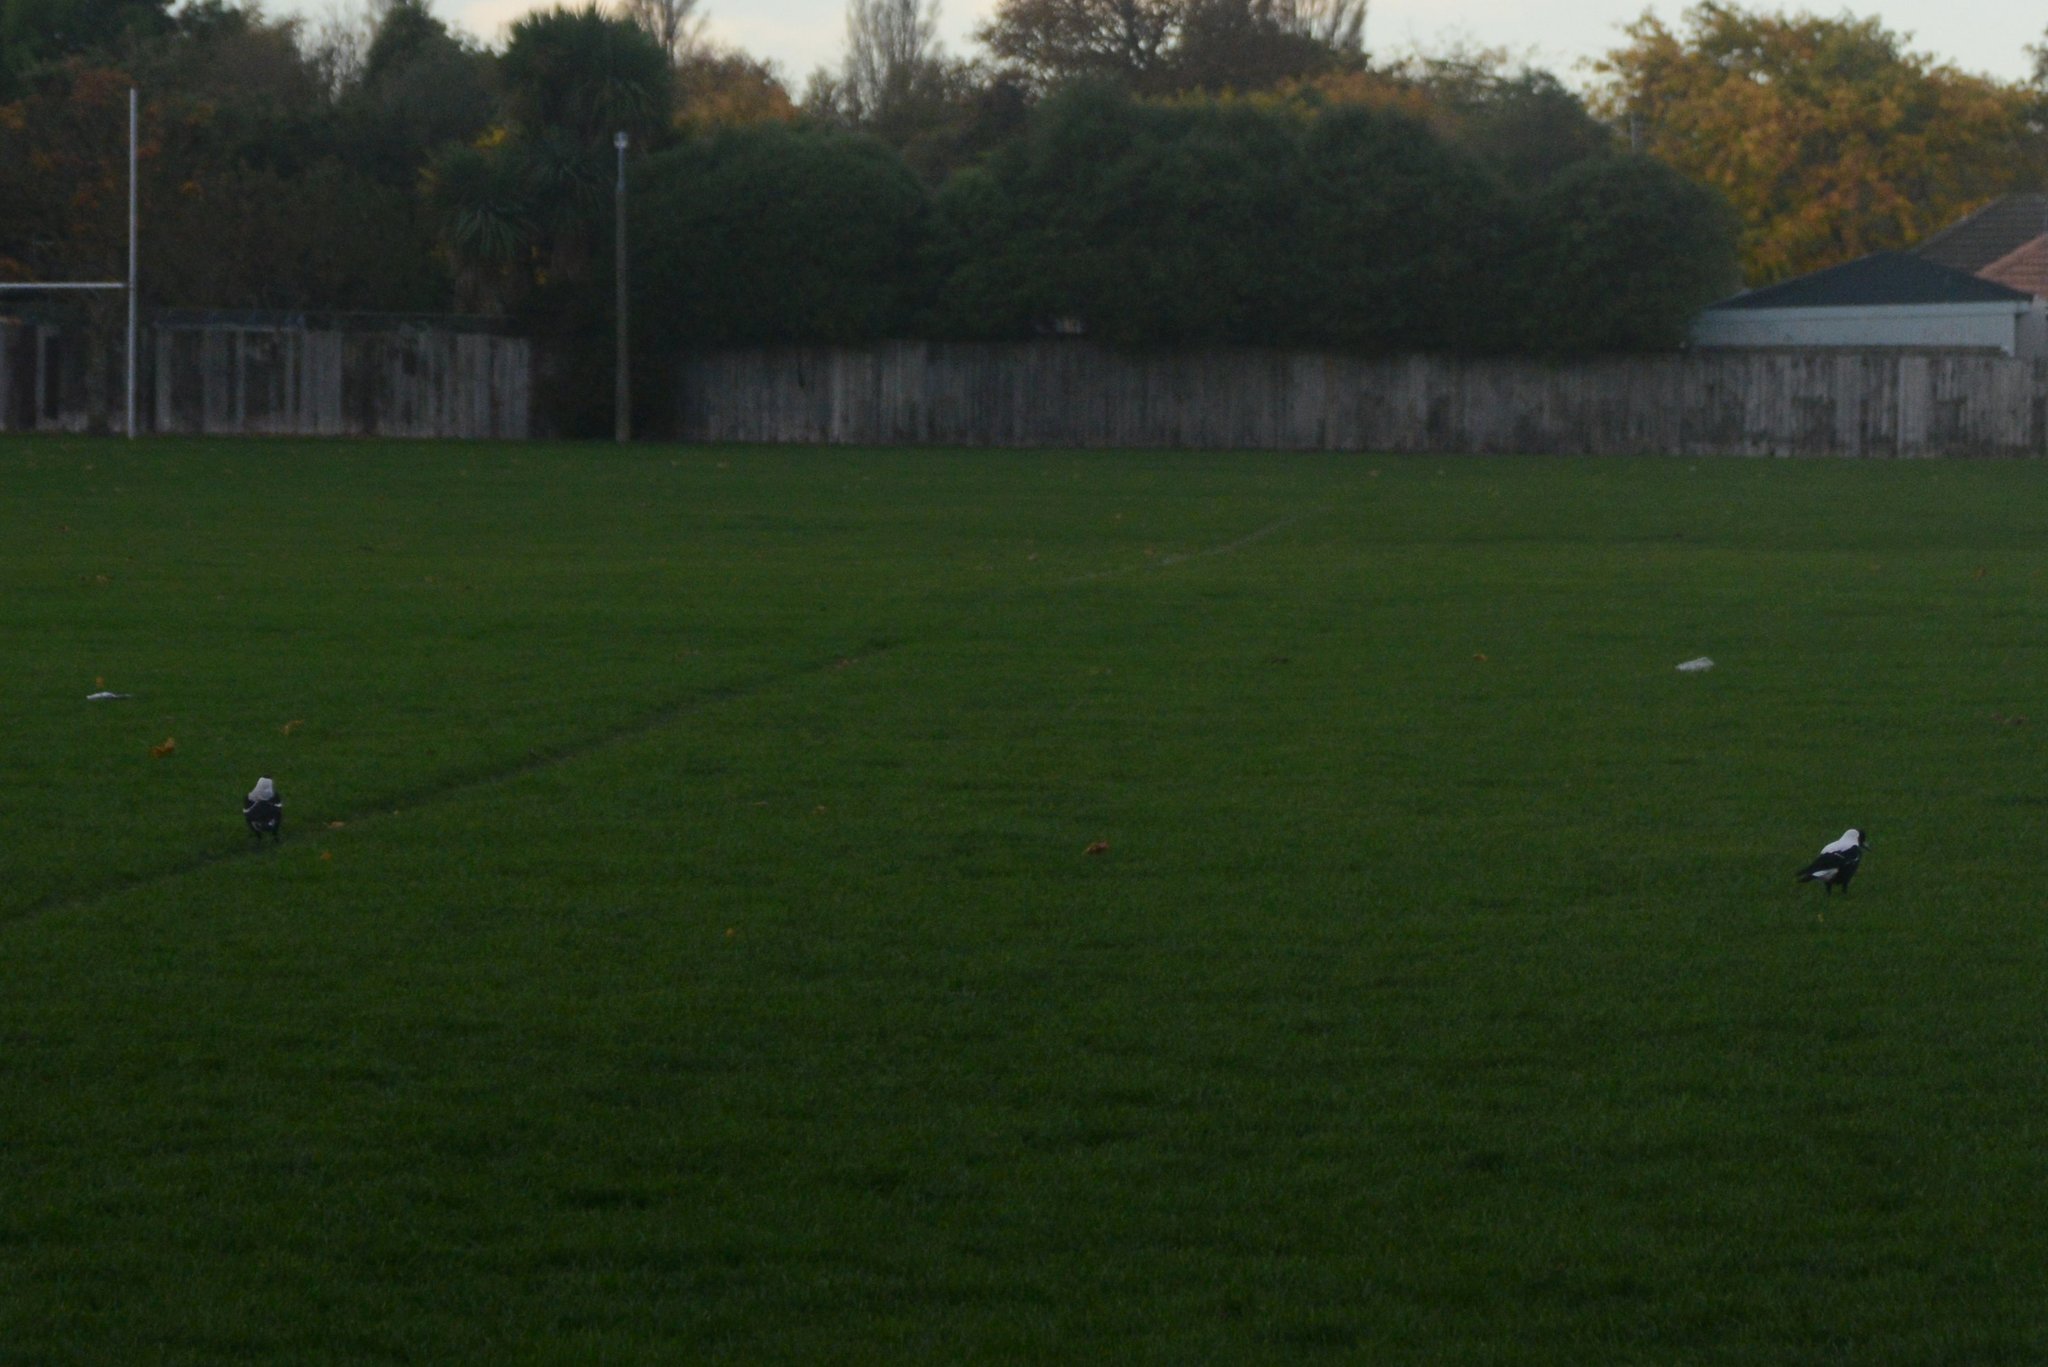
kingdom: Animalia
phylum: Chordata
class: Aves
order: Passeriformes
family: Cracticidae
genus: Gymnorhina
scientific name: Gymnorhina tibicen
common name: Australian magpie
